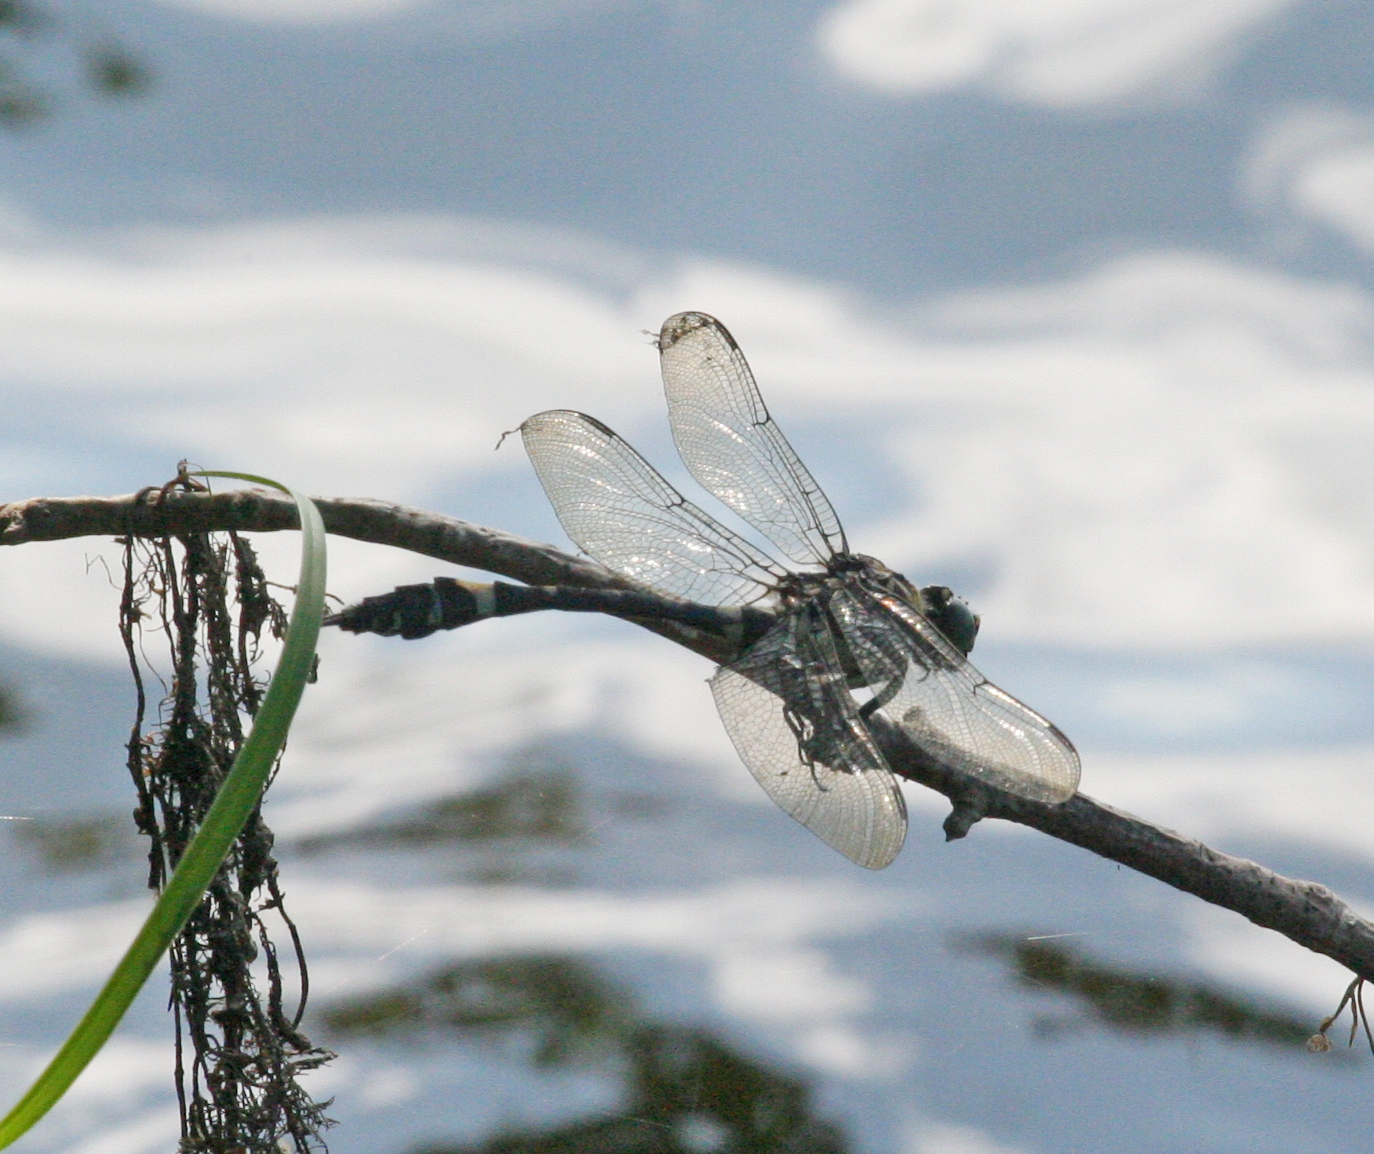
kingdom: Animalia
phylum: Arthropoda
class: Insecta
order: Odonata
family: Gomphidae
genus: Gomphidia
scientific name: Gomphidia confluens
